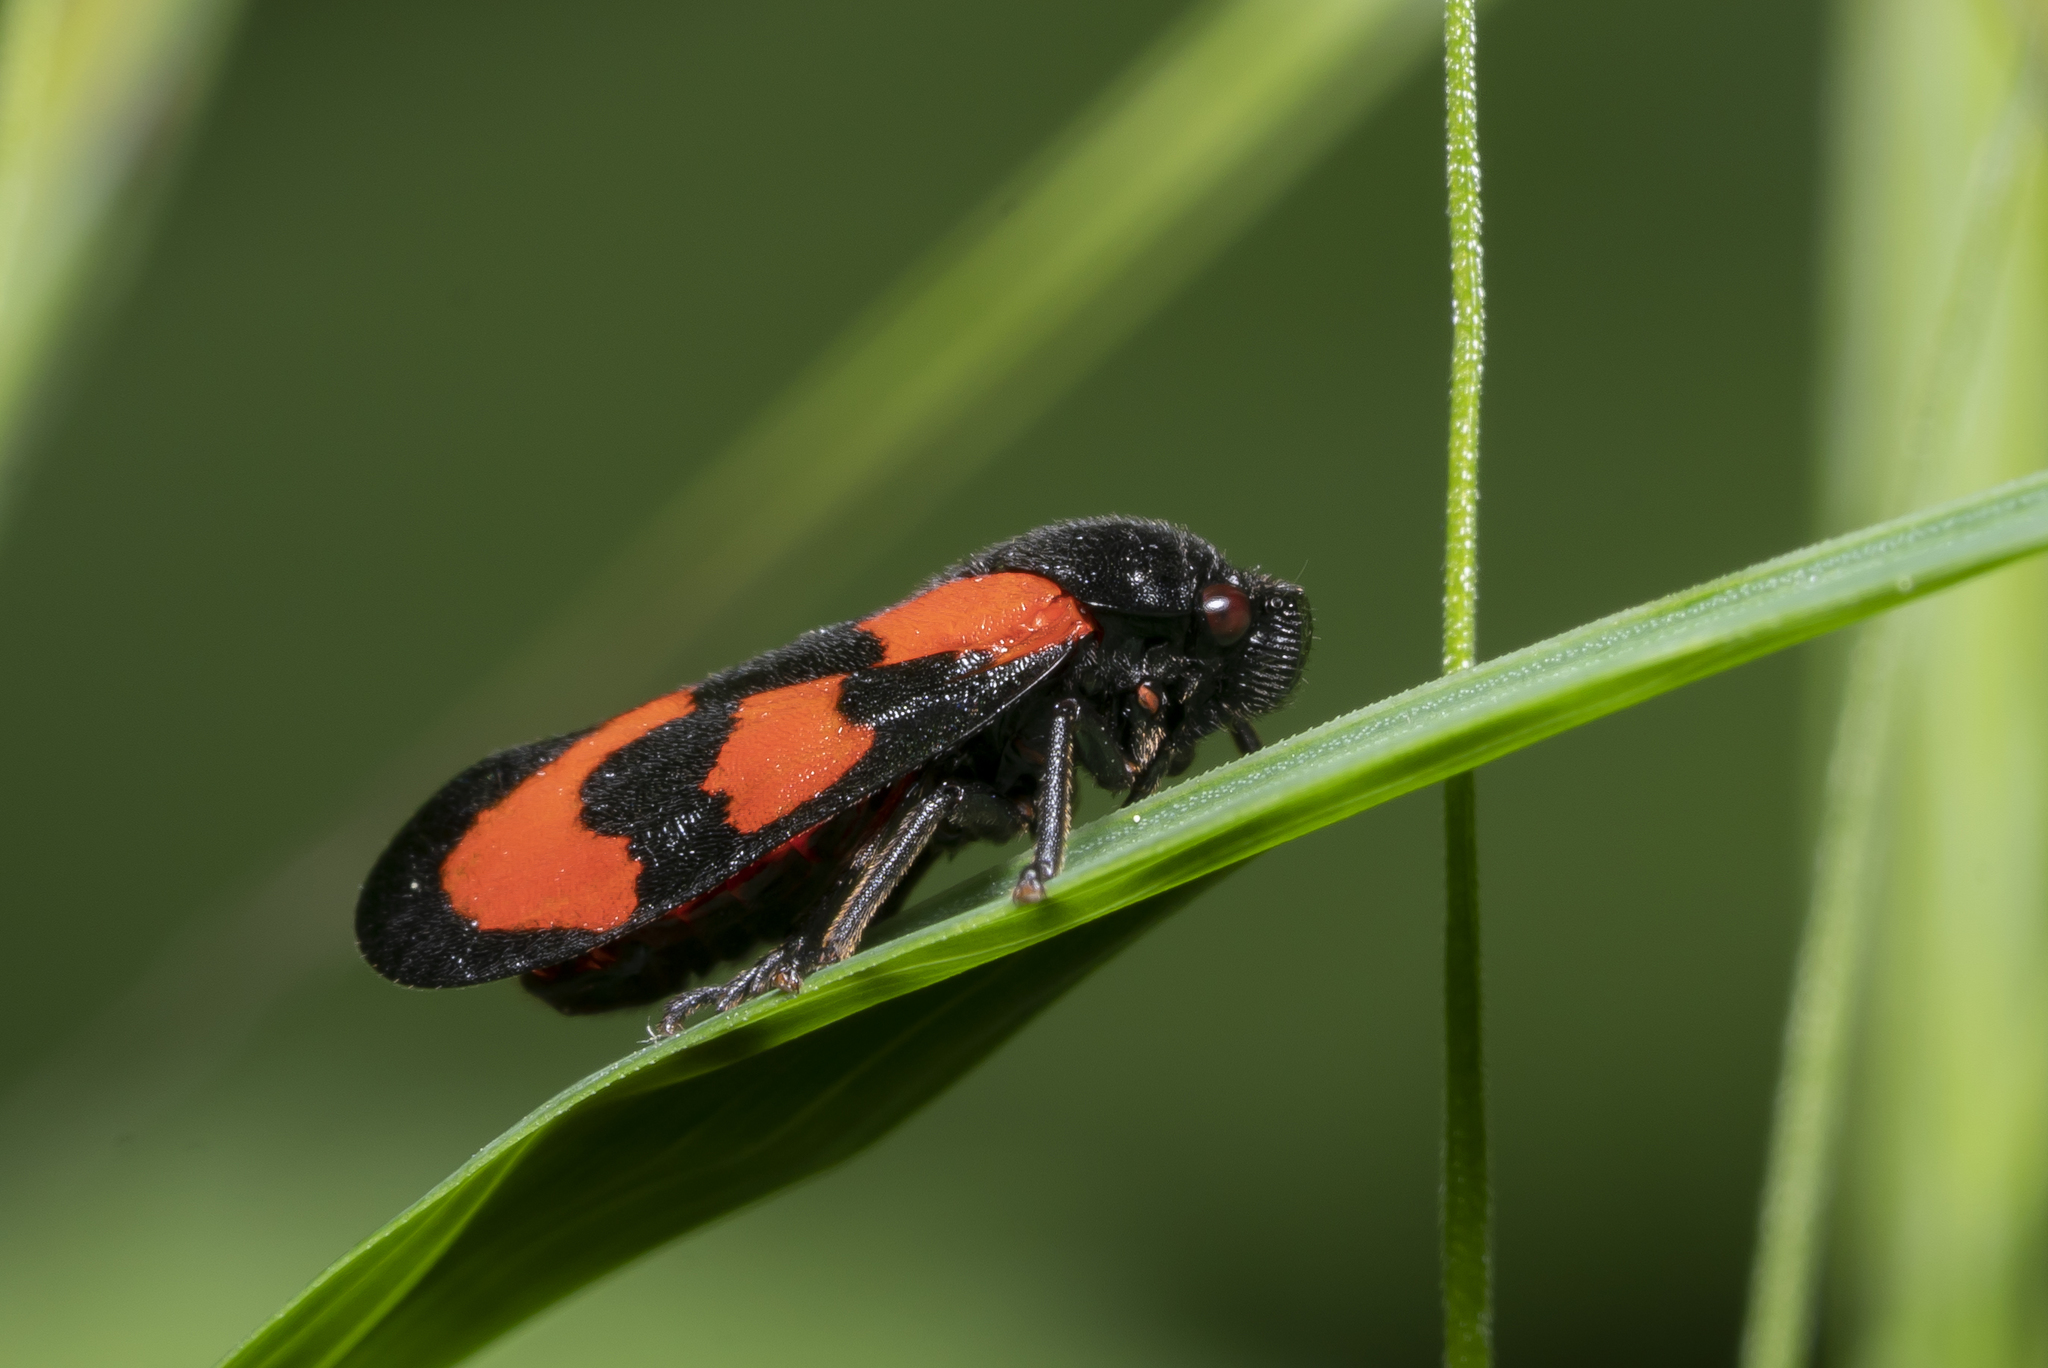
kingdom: Animalia
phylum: Arthropoda
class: Insecta
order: Hemiptera
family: Cercopidae
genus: Cercopis
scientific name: Cercopis vulnerata
